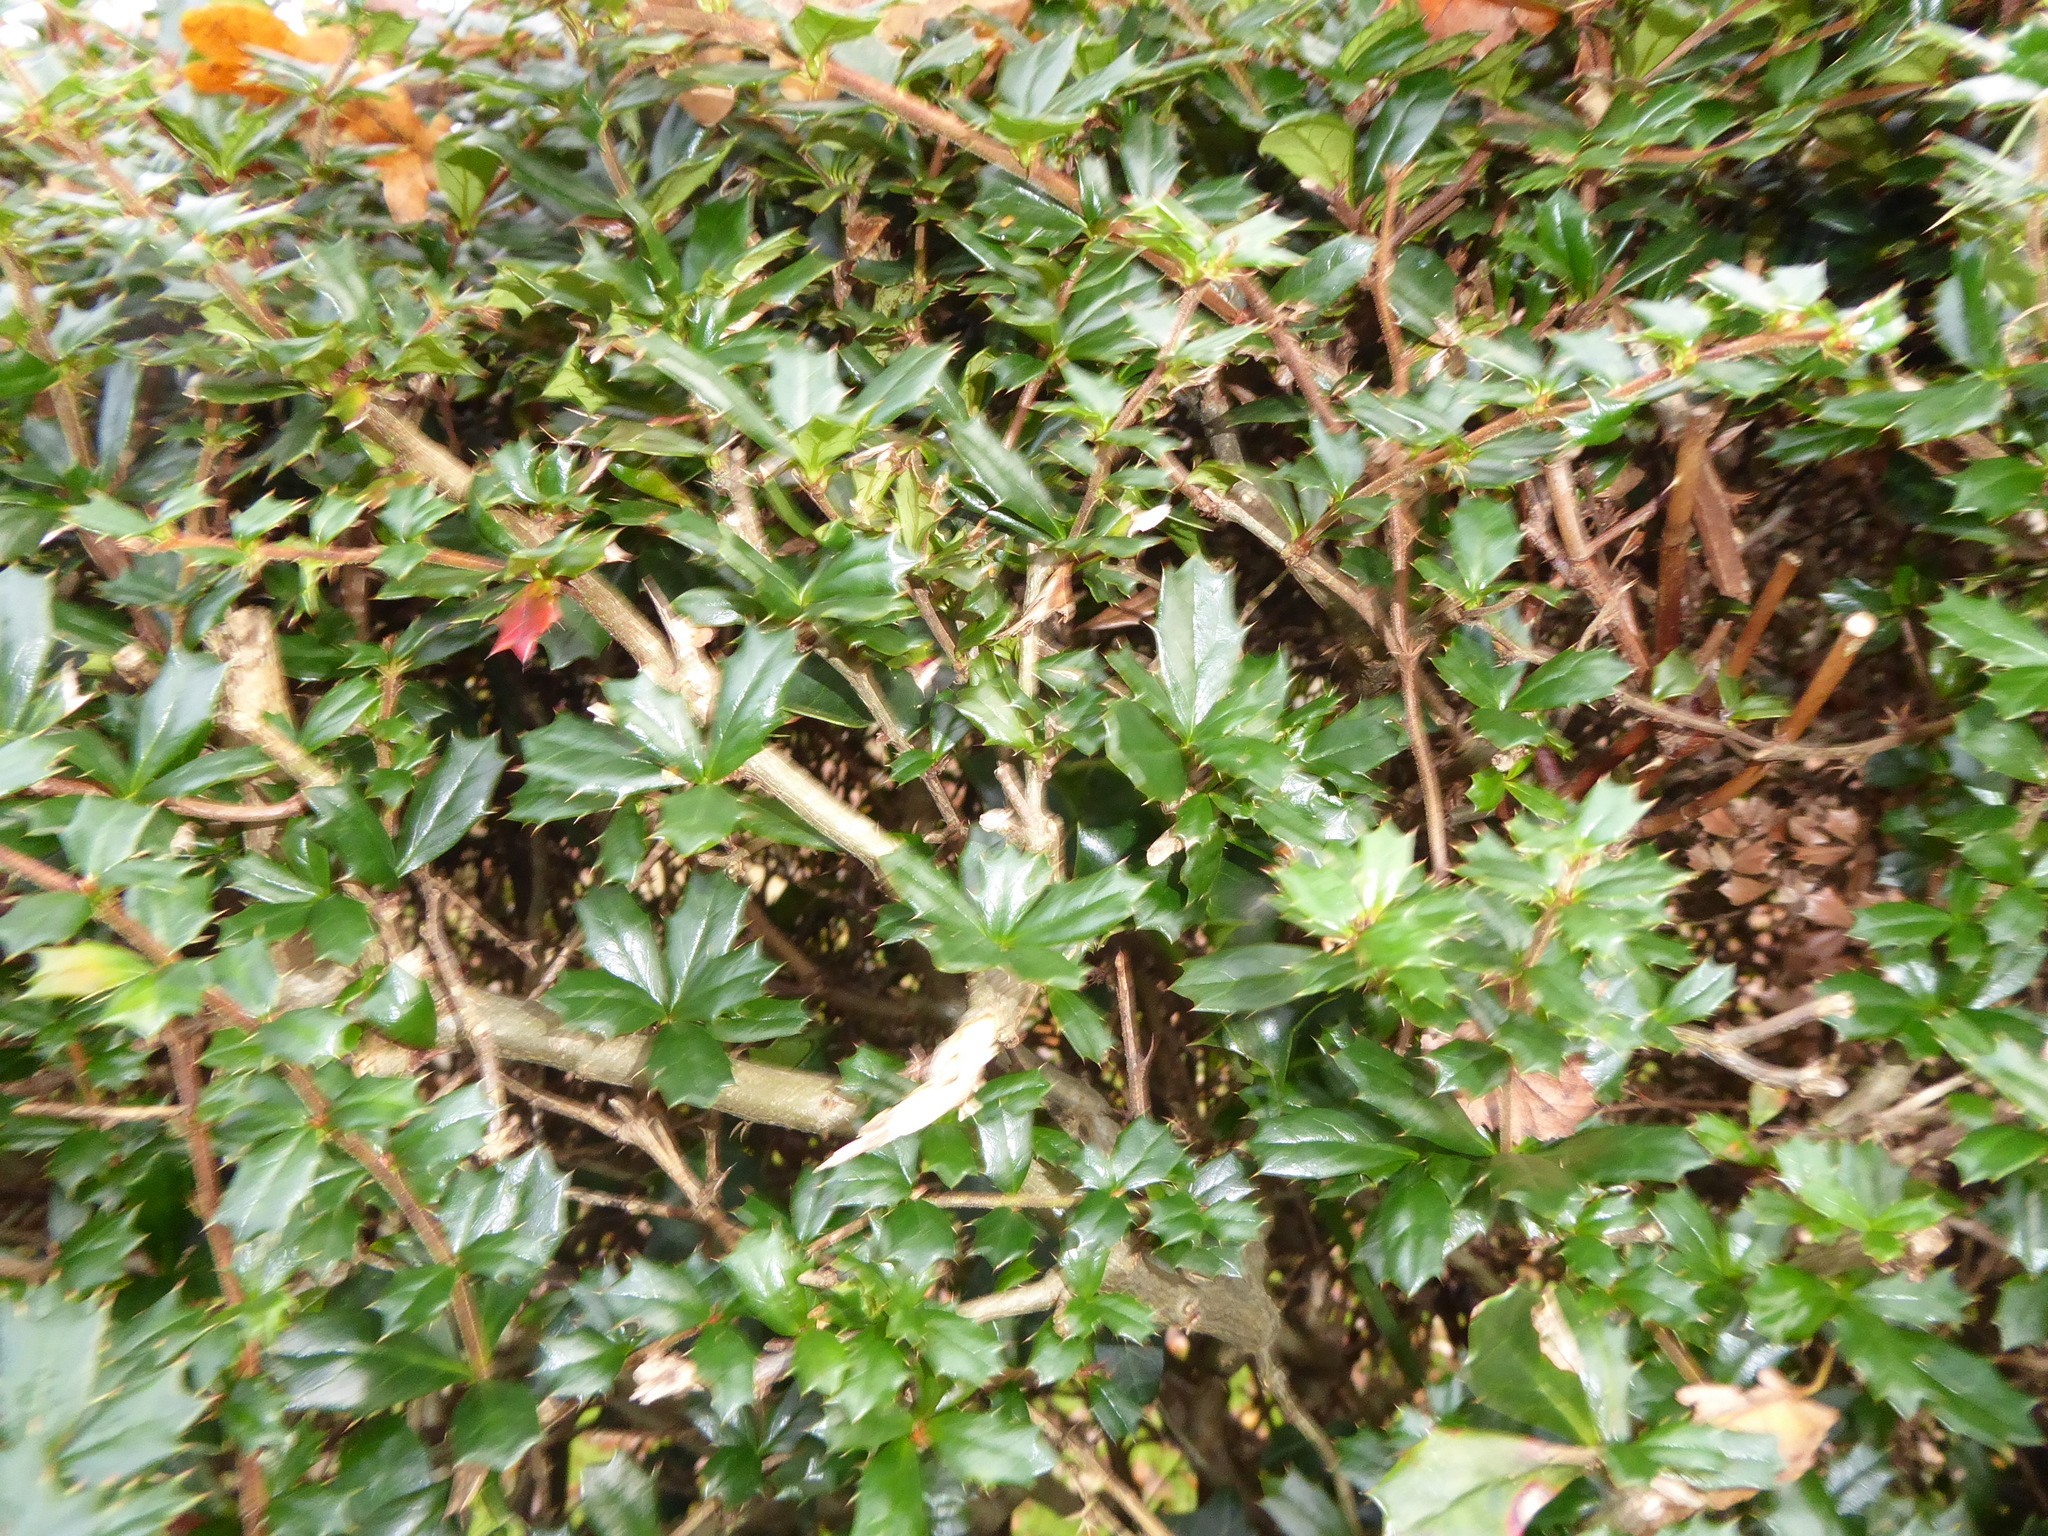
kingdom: Plantae
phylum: Tracheophyta
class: Magnoliopsida
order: Ranunculales
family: Berberidaceae
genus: Berberis
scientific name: Berberis darwinii
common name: Darwin's barberry
